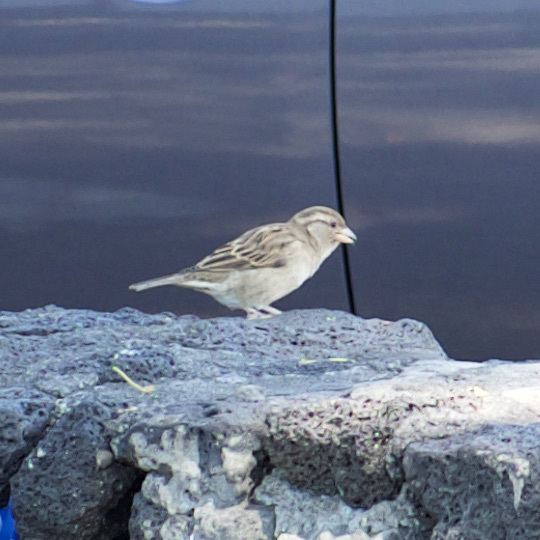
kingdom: Animalia
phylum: Chordata
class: Aves
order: Passeriformes
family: Passeridae
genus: Passer
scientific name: Passer domesticus
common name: House sparrow
